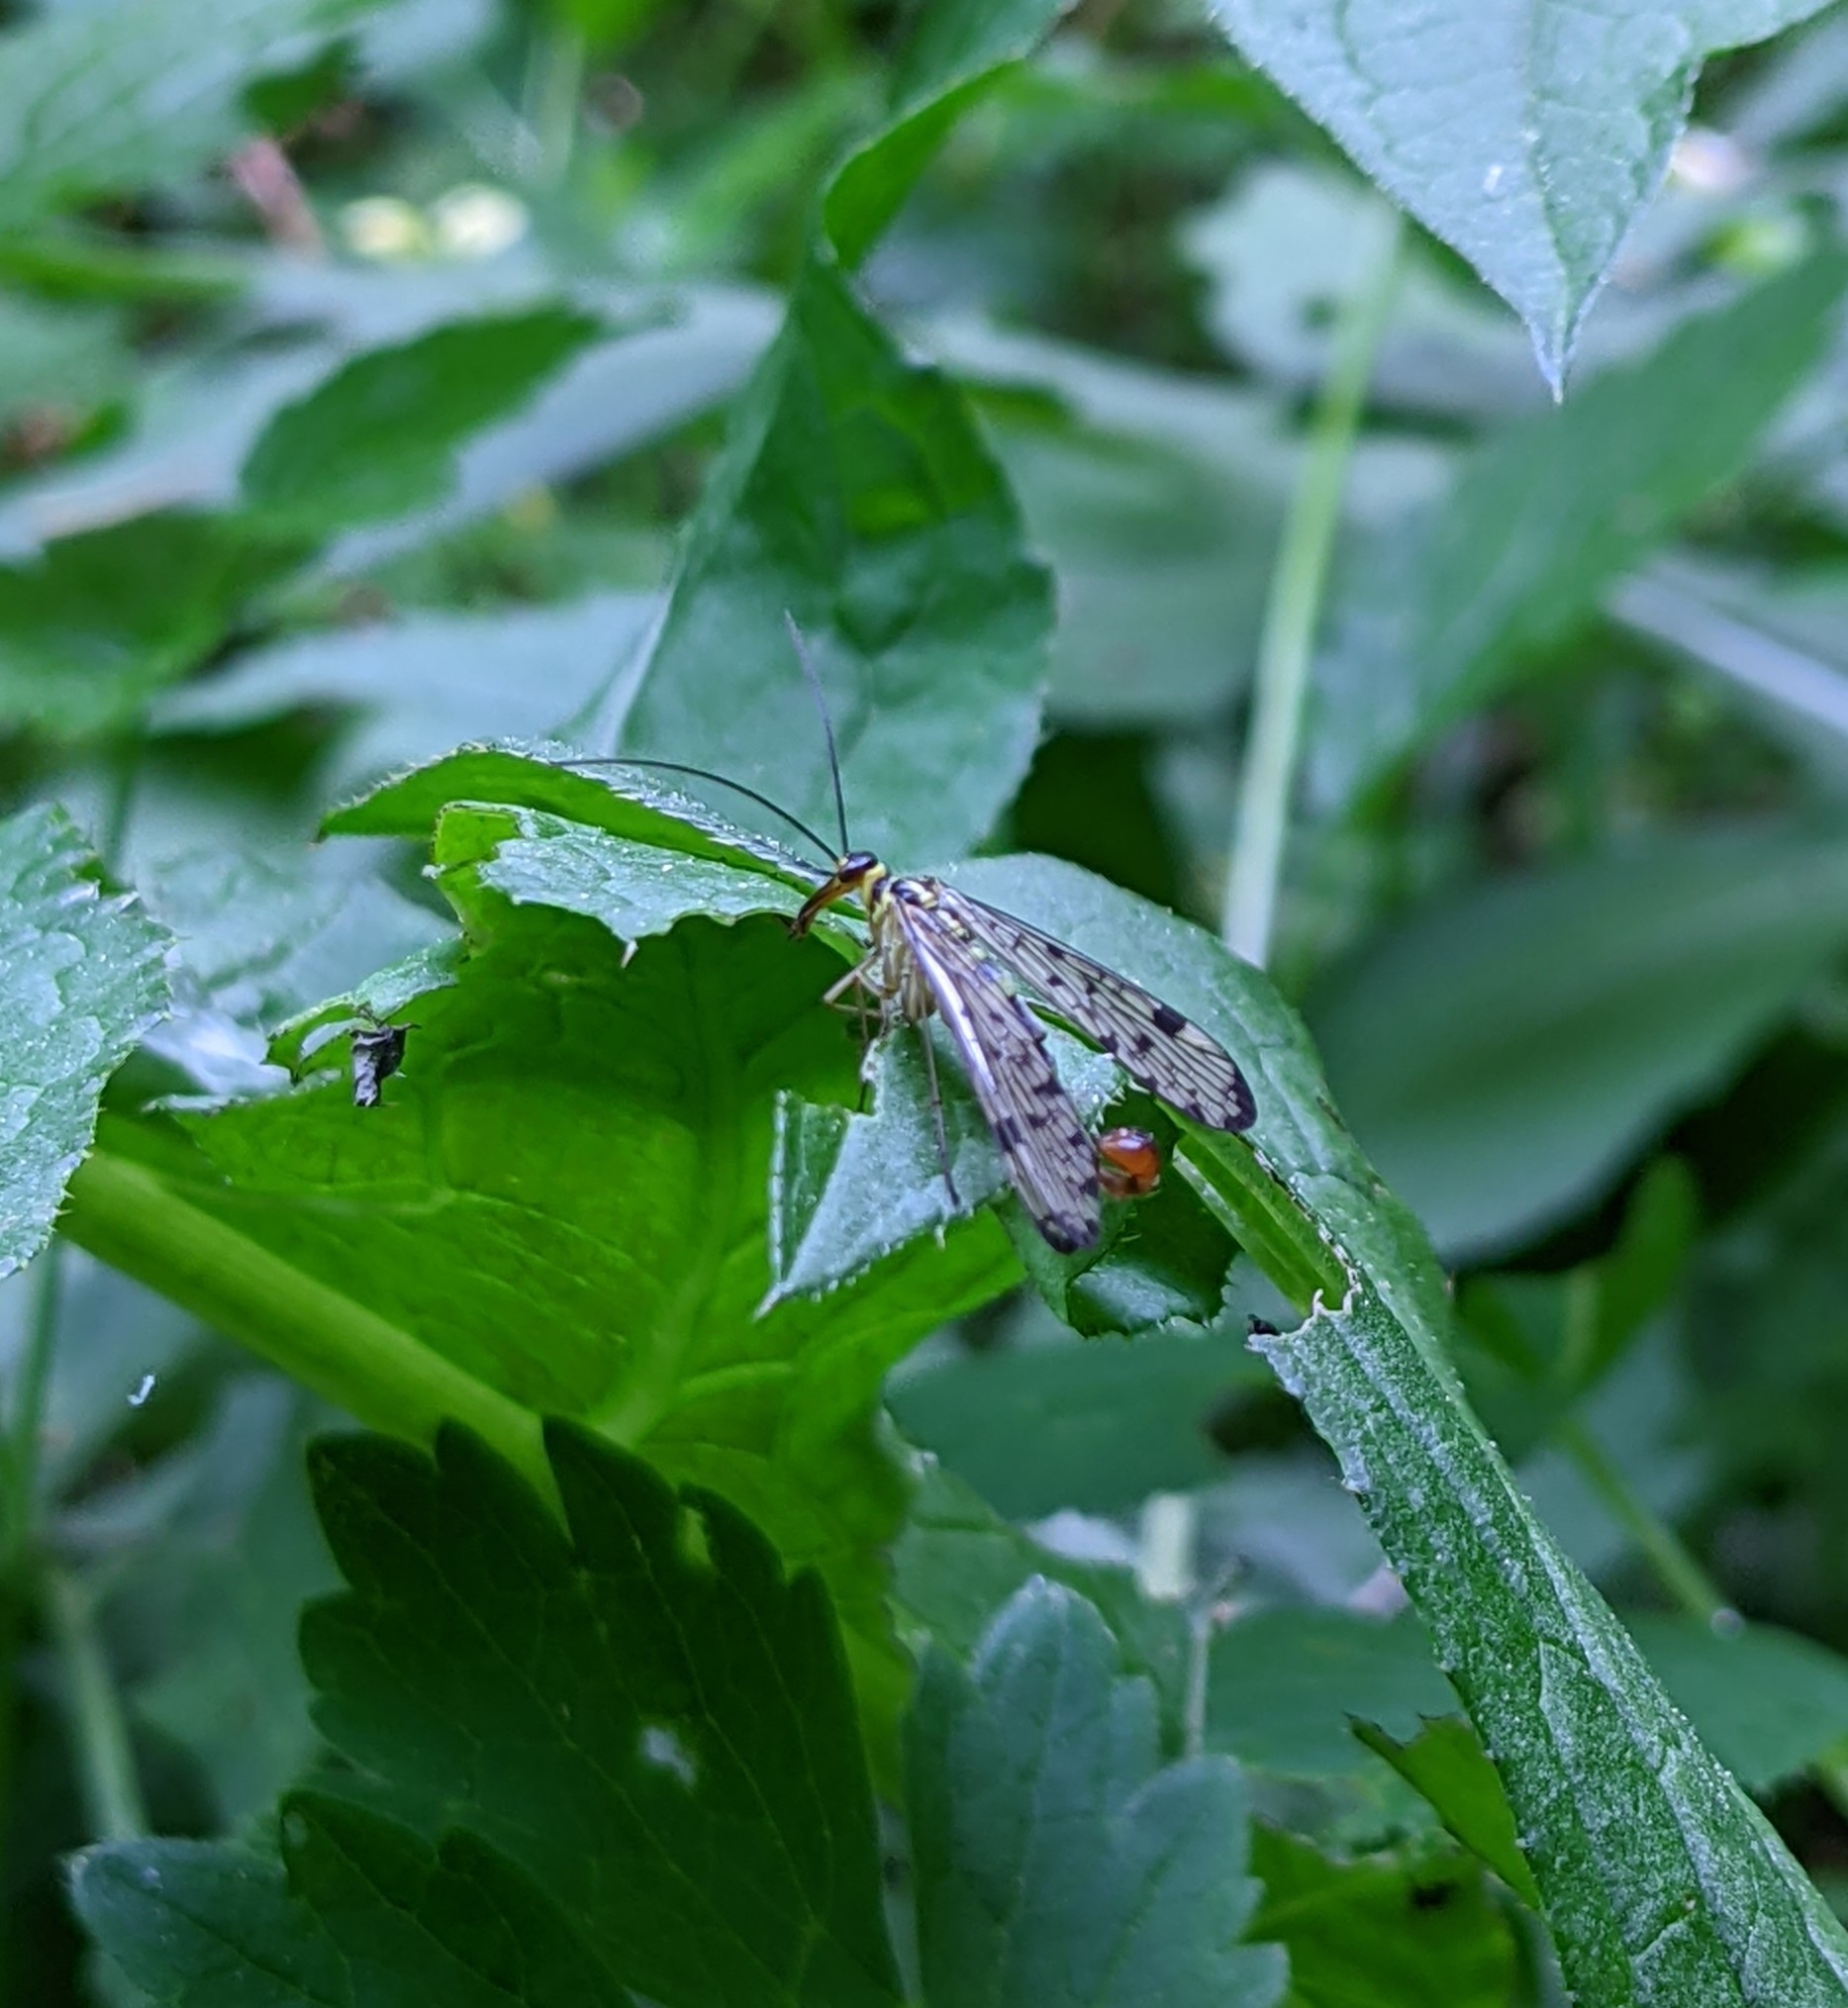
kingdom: Animalia
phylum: Arthropoda
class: Insecta
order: Mecoptera
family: Panorpidae
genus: Panorpa
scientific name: Panorpa germanica
